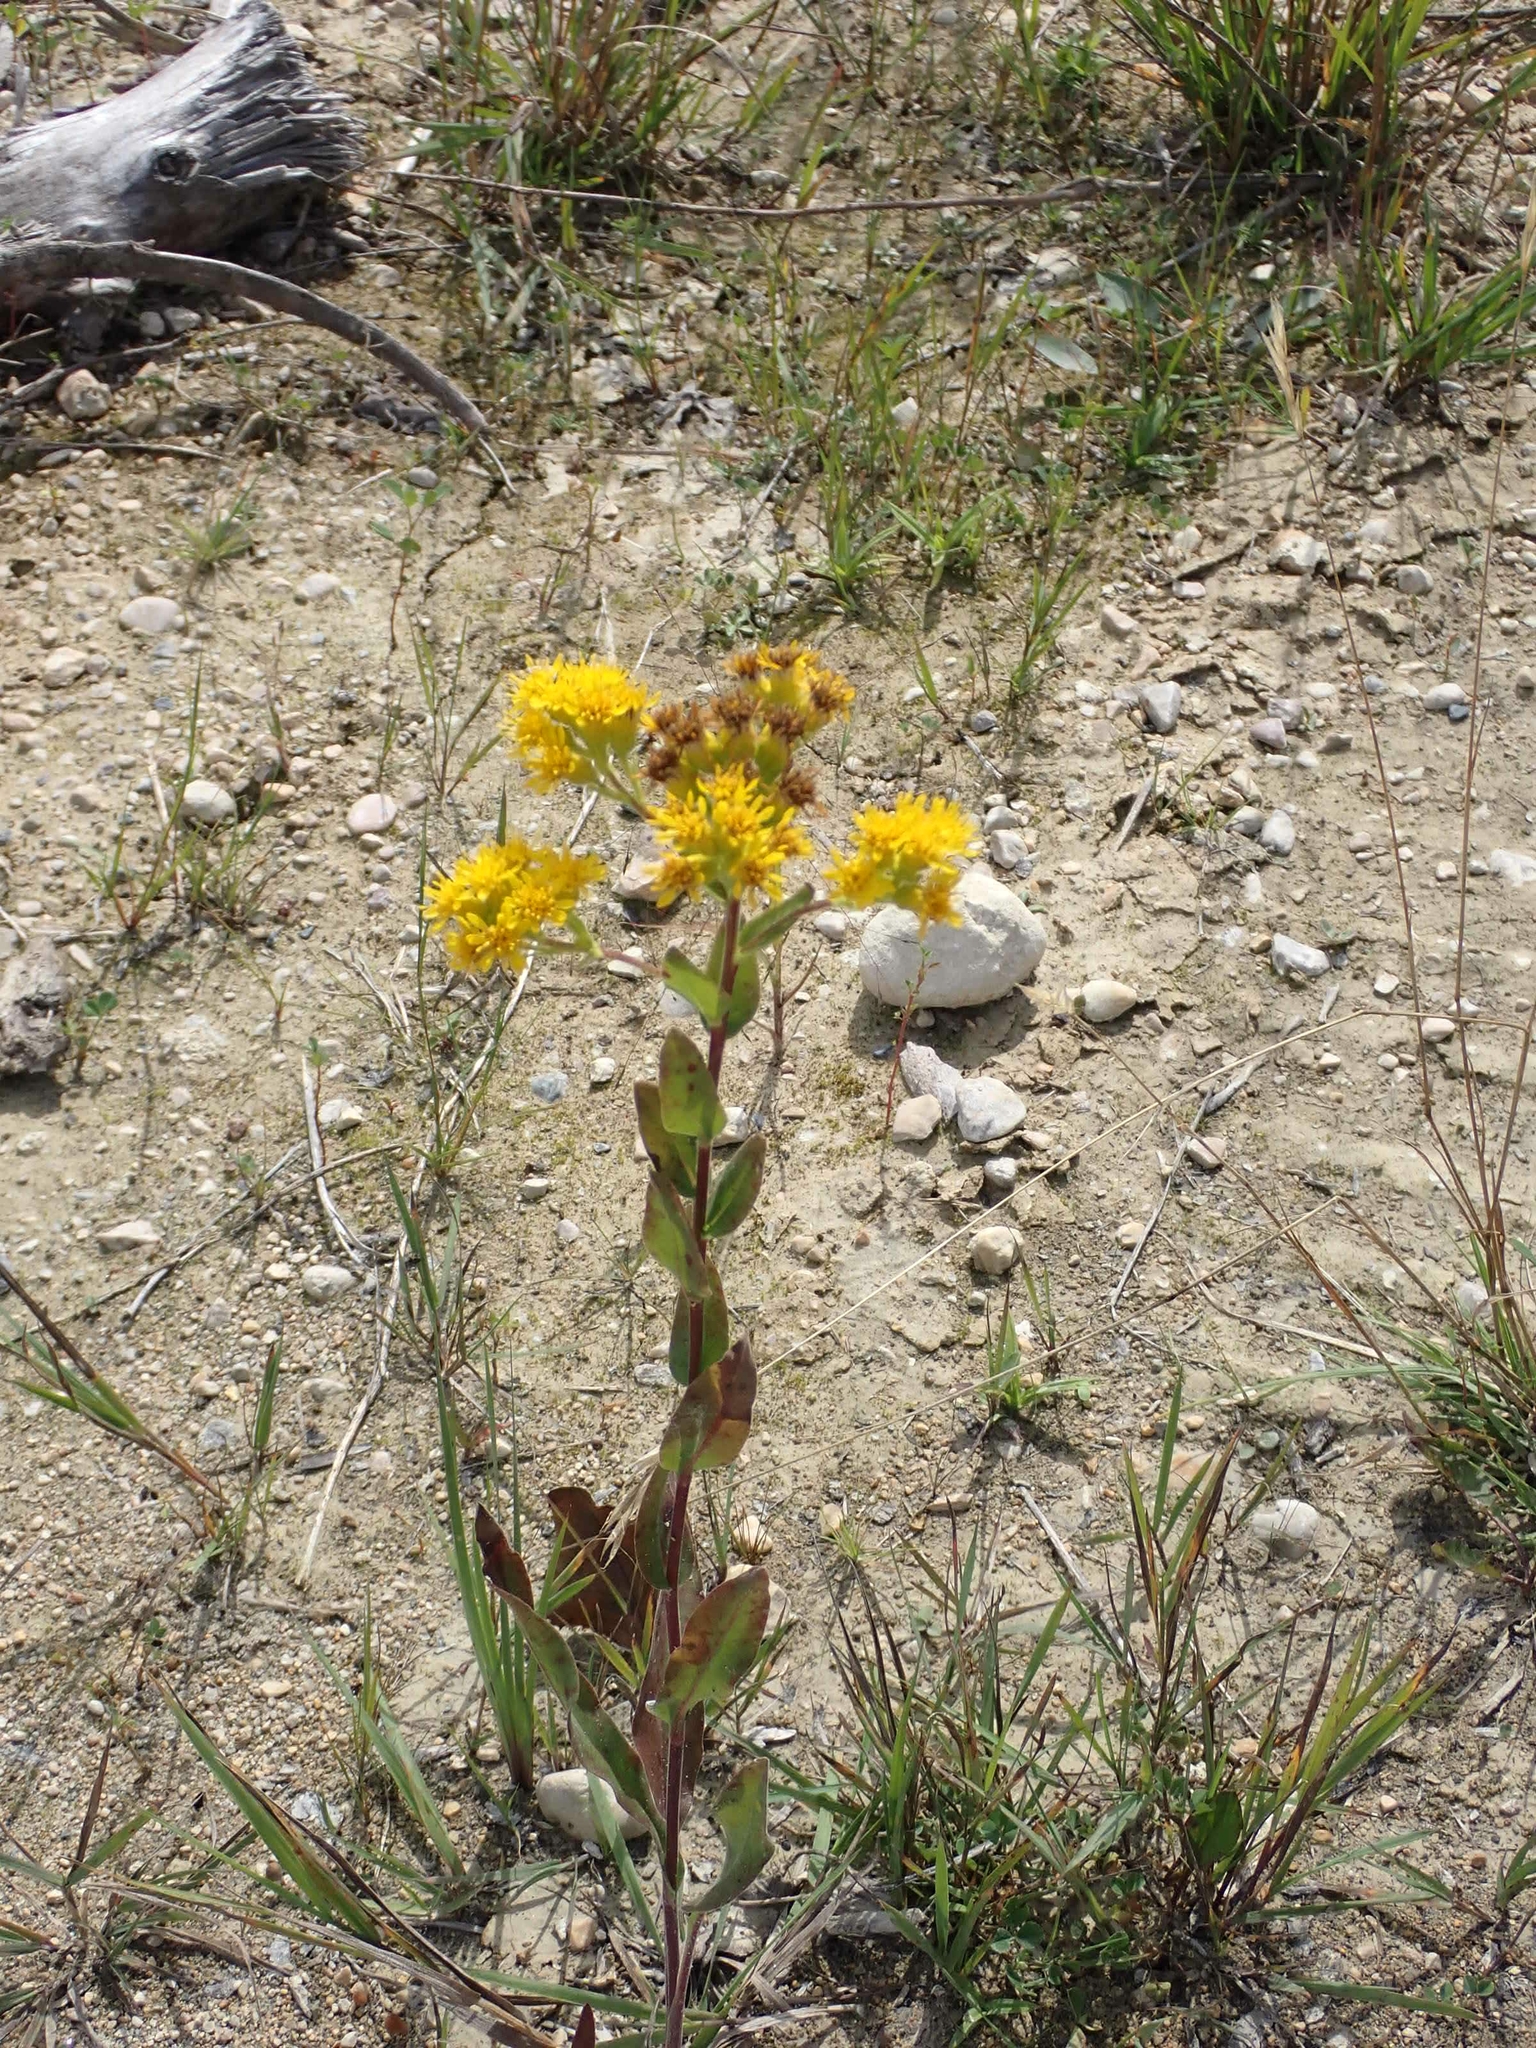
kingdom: Plantae
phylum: Tracheophyta
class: Magnoliopsida
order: Asterales
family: Asteraceae
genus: Solidago
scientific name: Solidago rigida
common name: Rigid goldenrod
